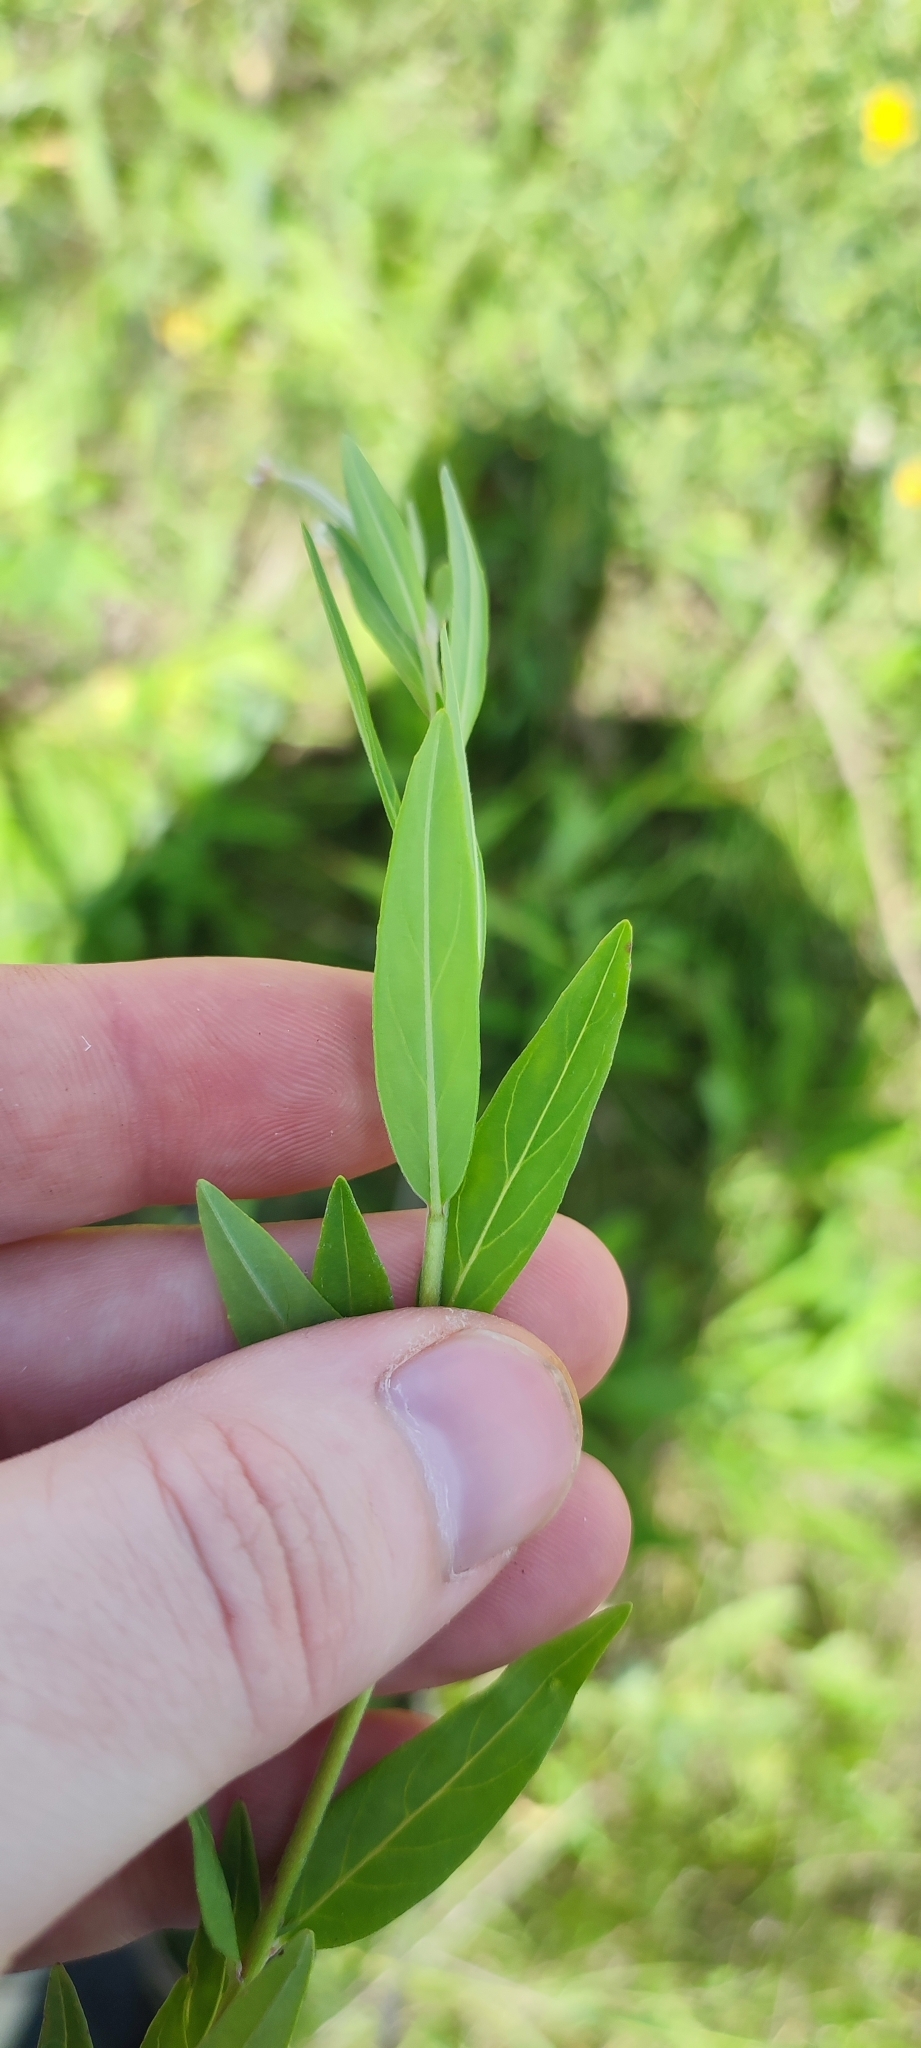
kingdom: Plantae
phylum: Tracheophyta
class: Magnoliopsida
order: Myrtales
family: Onagraceae
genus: Epilobium
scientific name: Epilobium palustre
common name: Marsh willowherb
